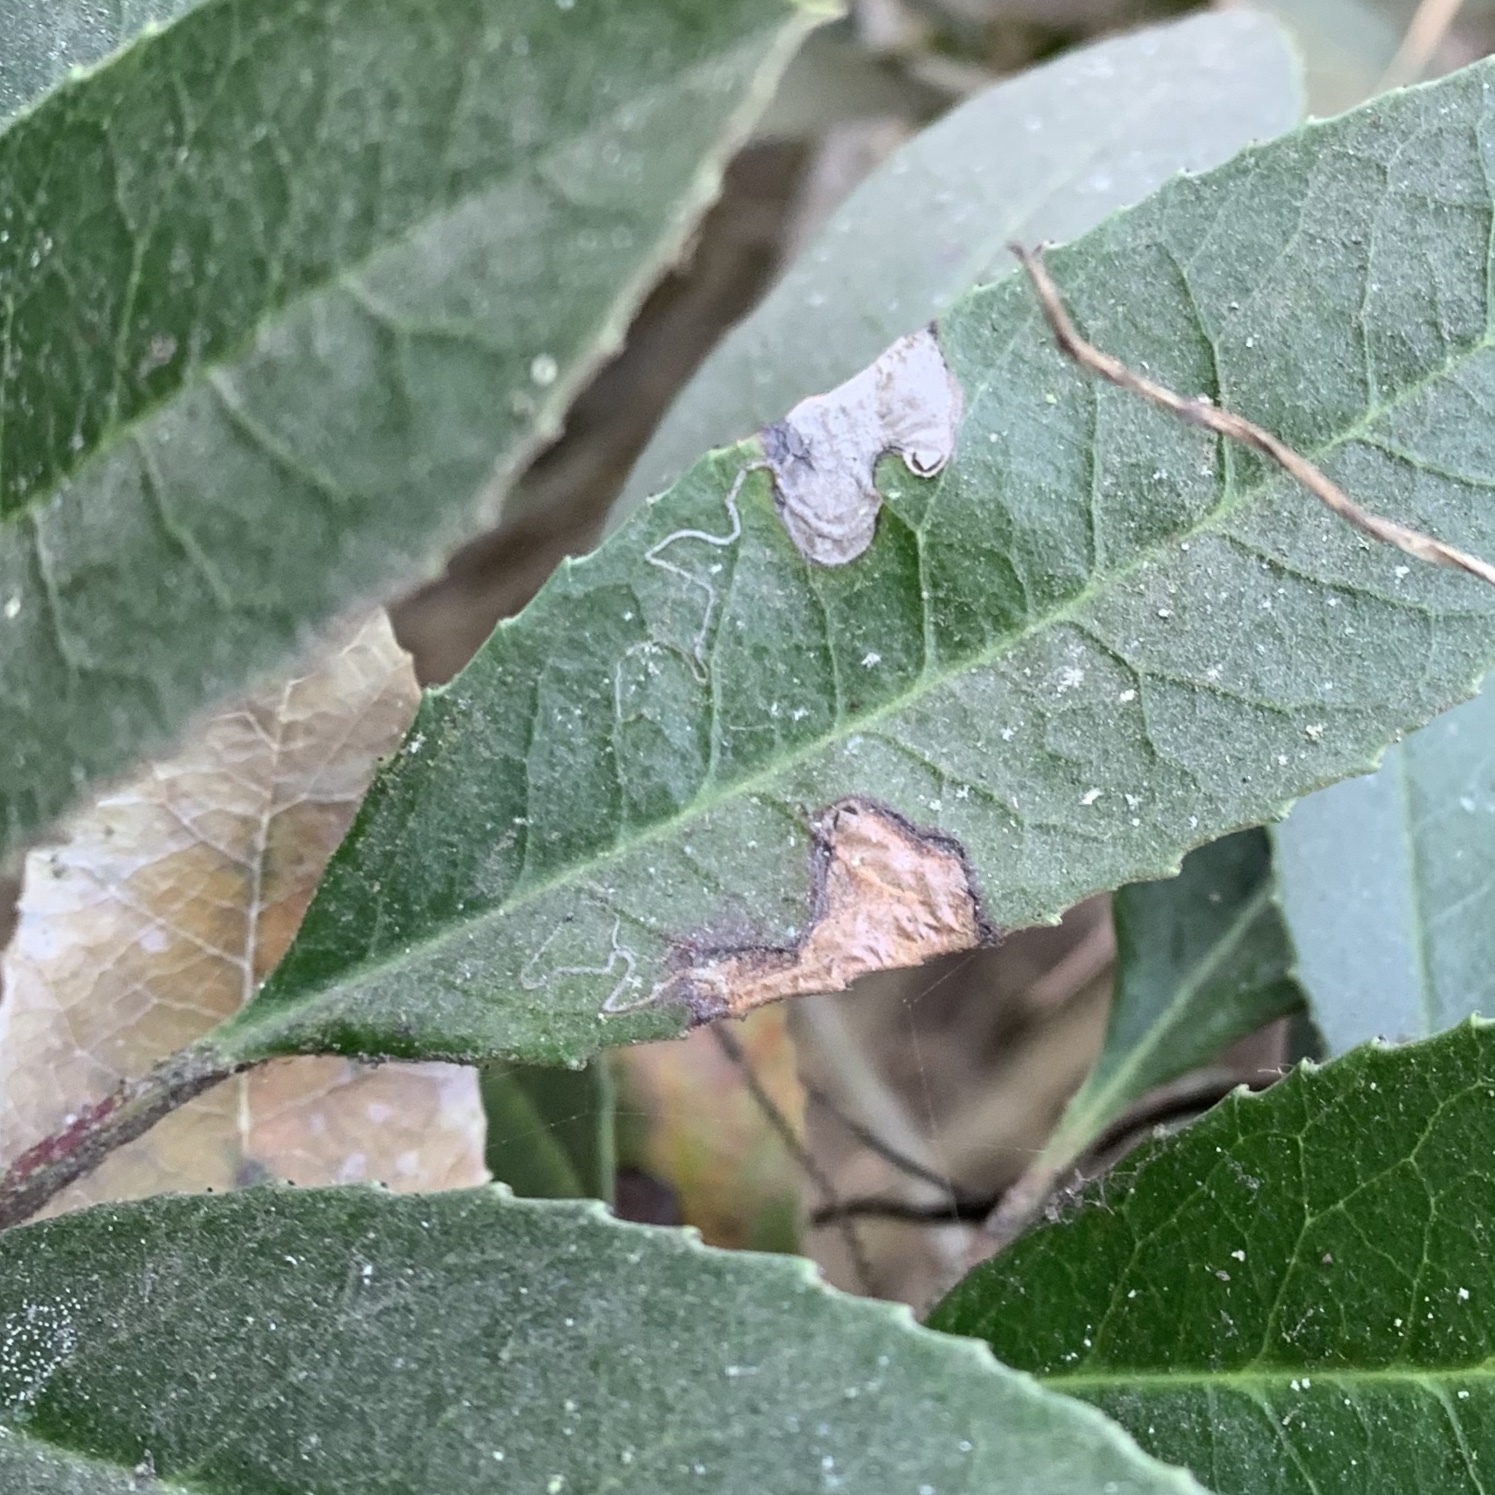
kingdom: Animalia
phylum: Arthropoda
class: Insecta
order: Lepidoptera
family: Nepticulidae
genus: Stigmella
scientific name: Stigmella heteromelis
